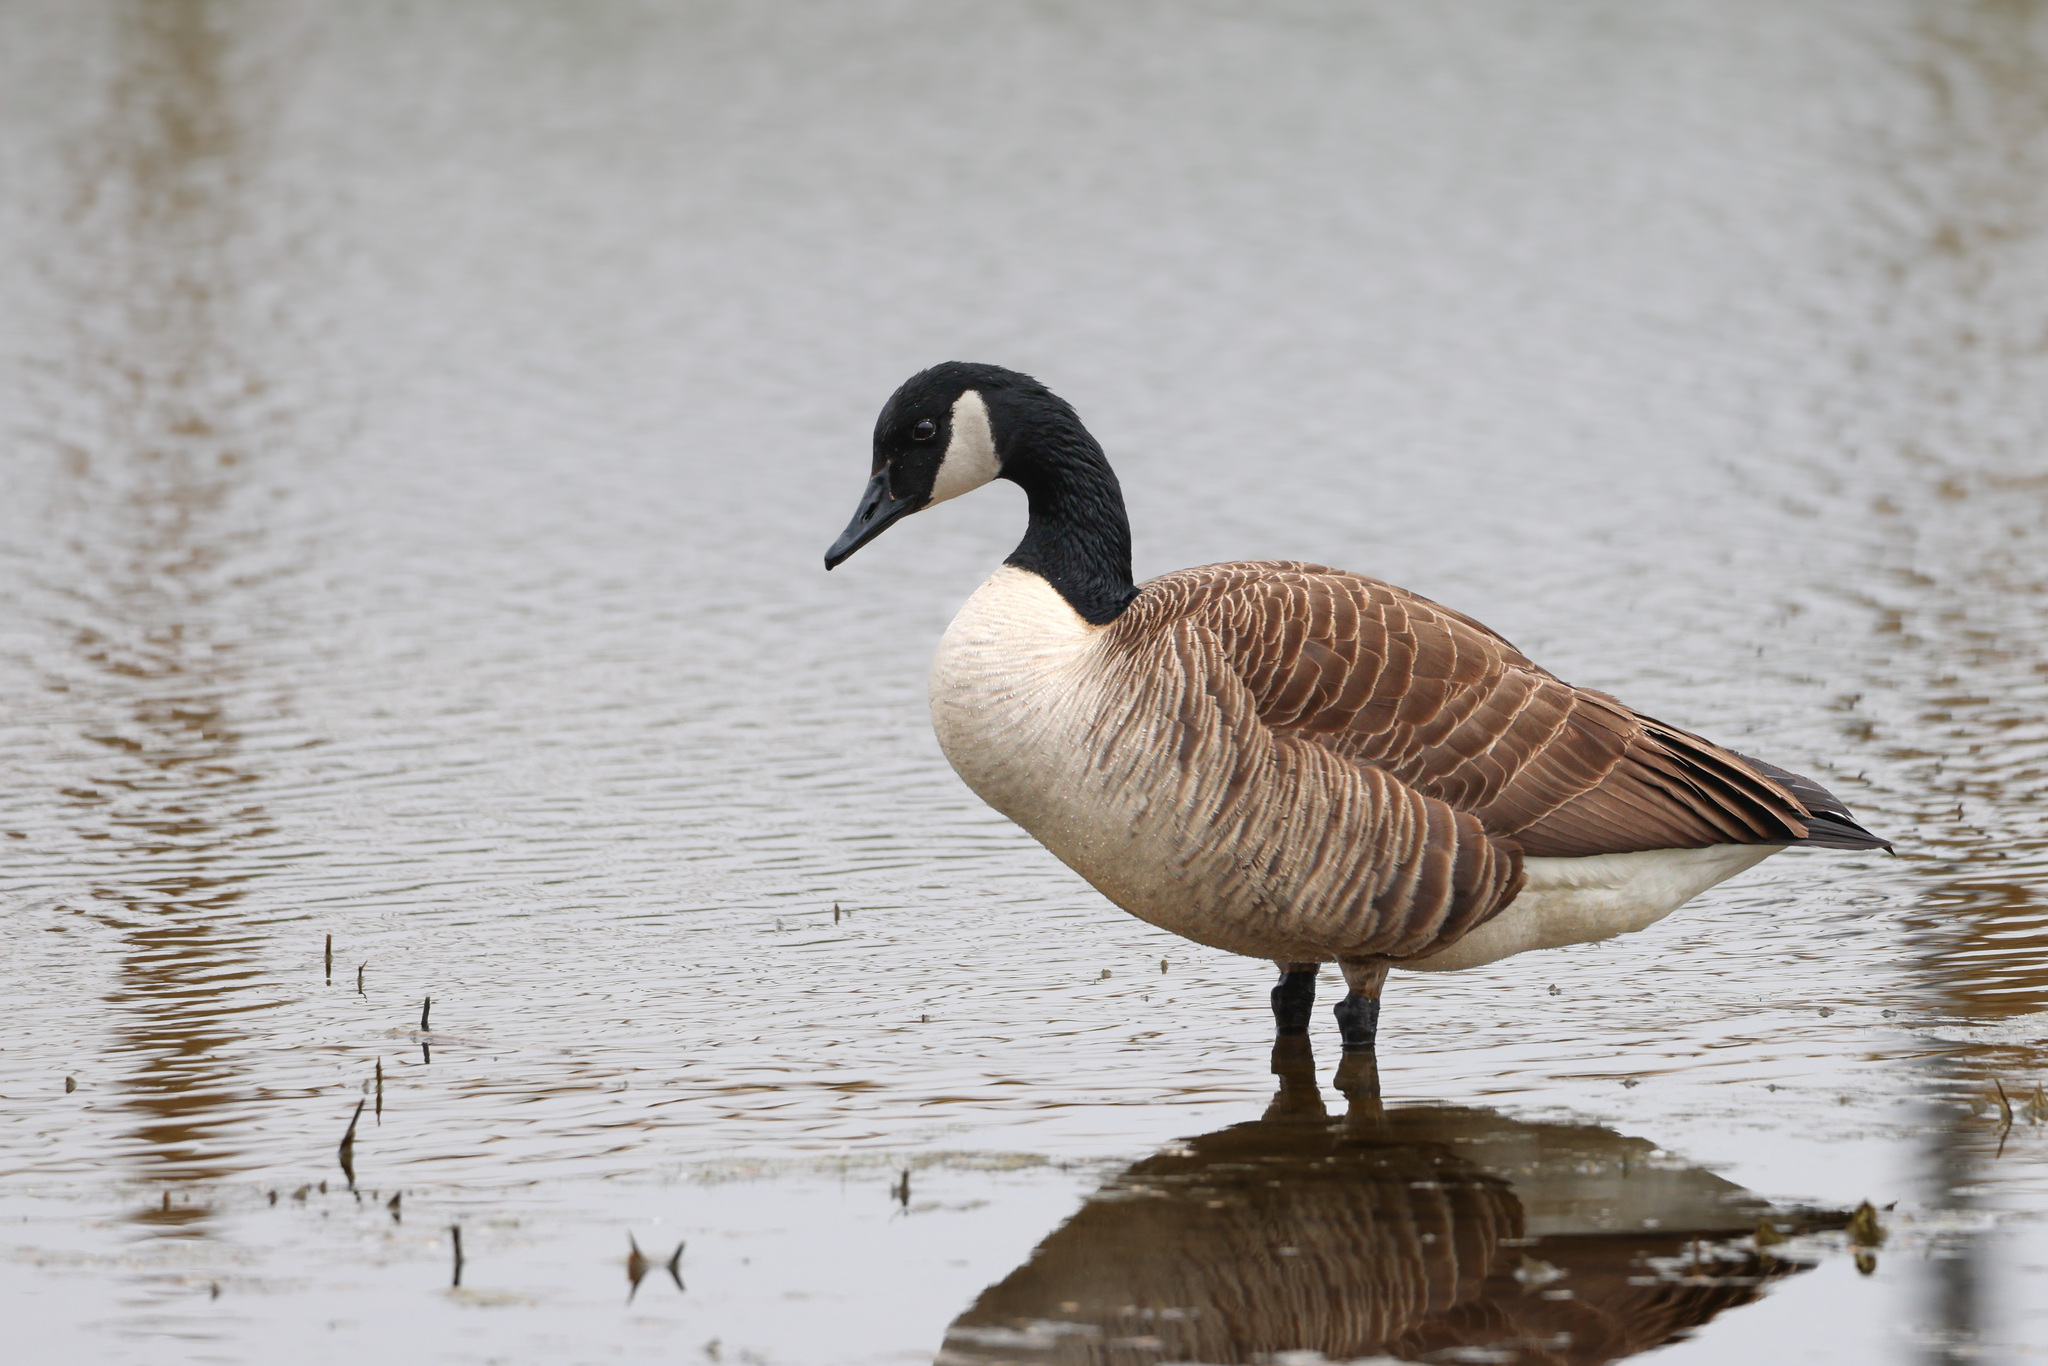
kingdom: Animalia
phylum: Chordata
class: Aves
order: Anseriformes
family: Anatidae
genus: Branta
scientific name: Branta canadensis
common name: Canada goose
